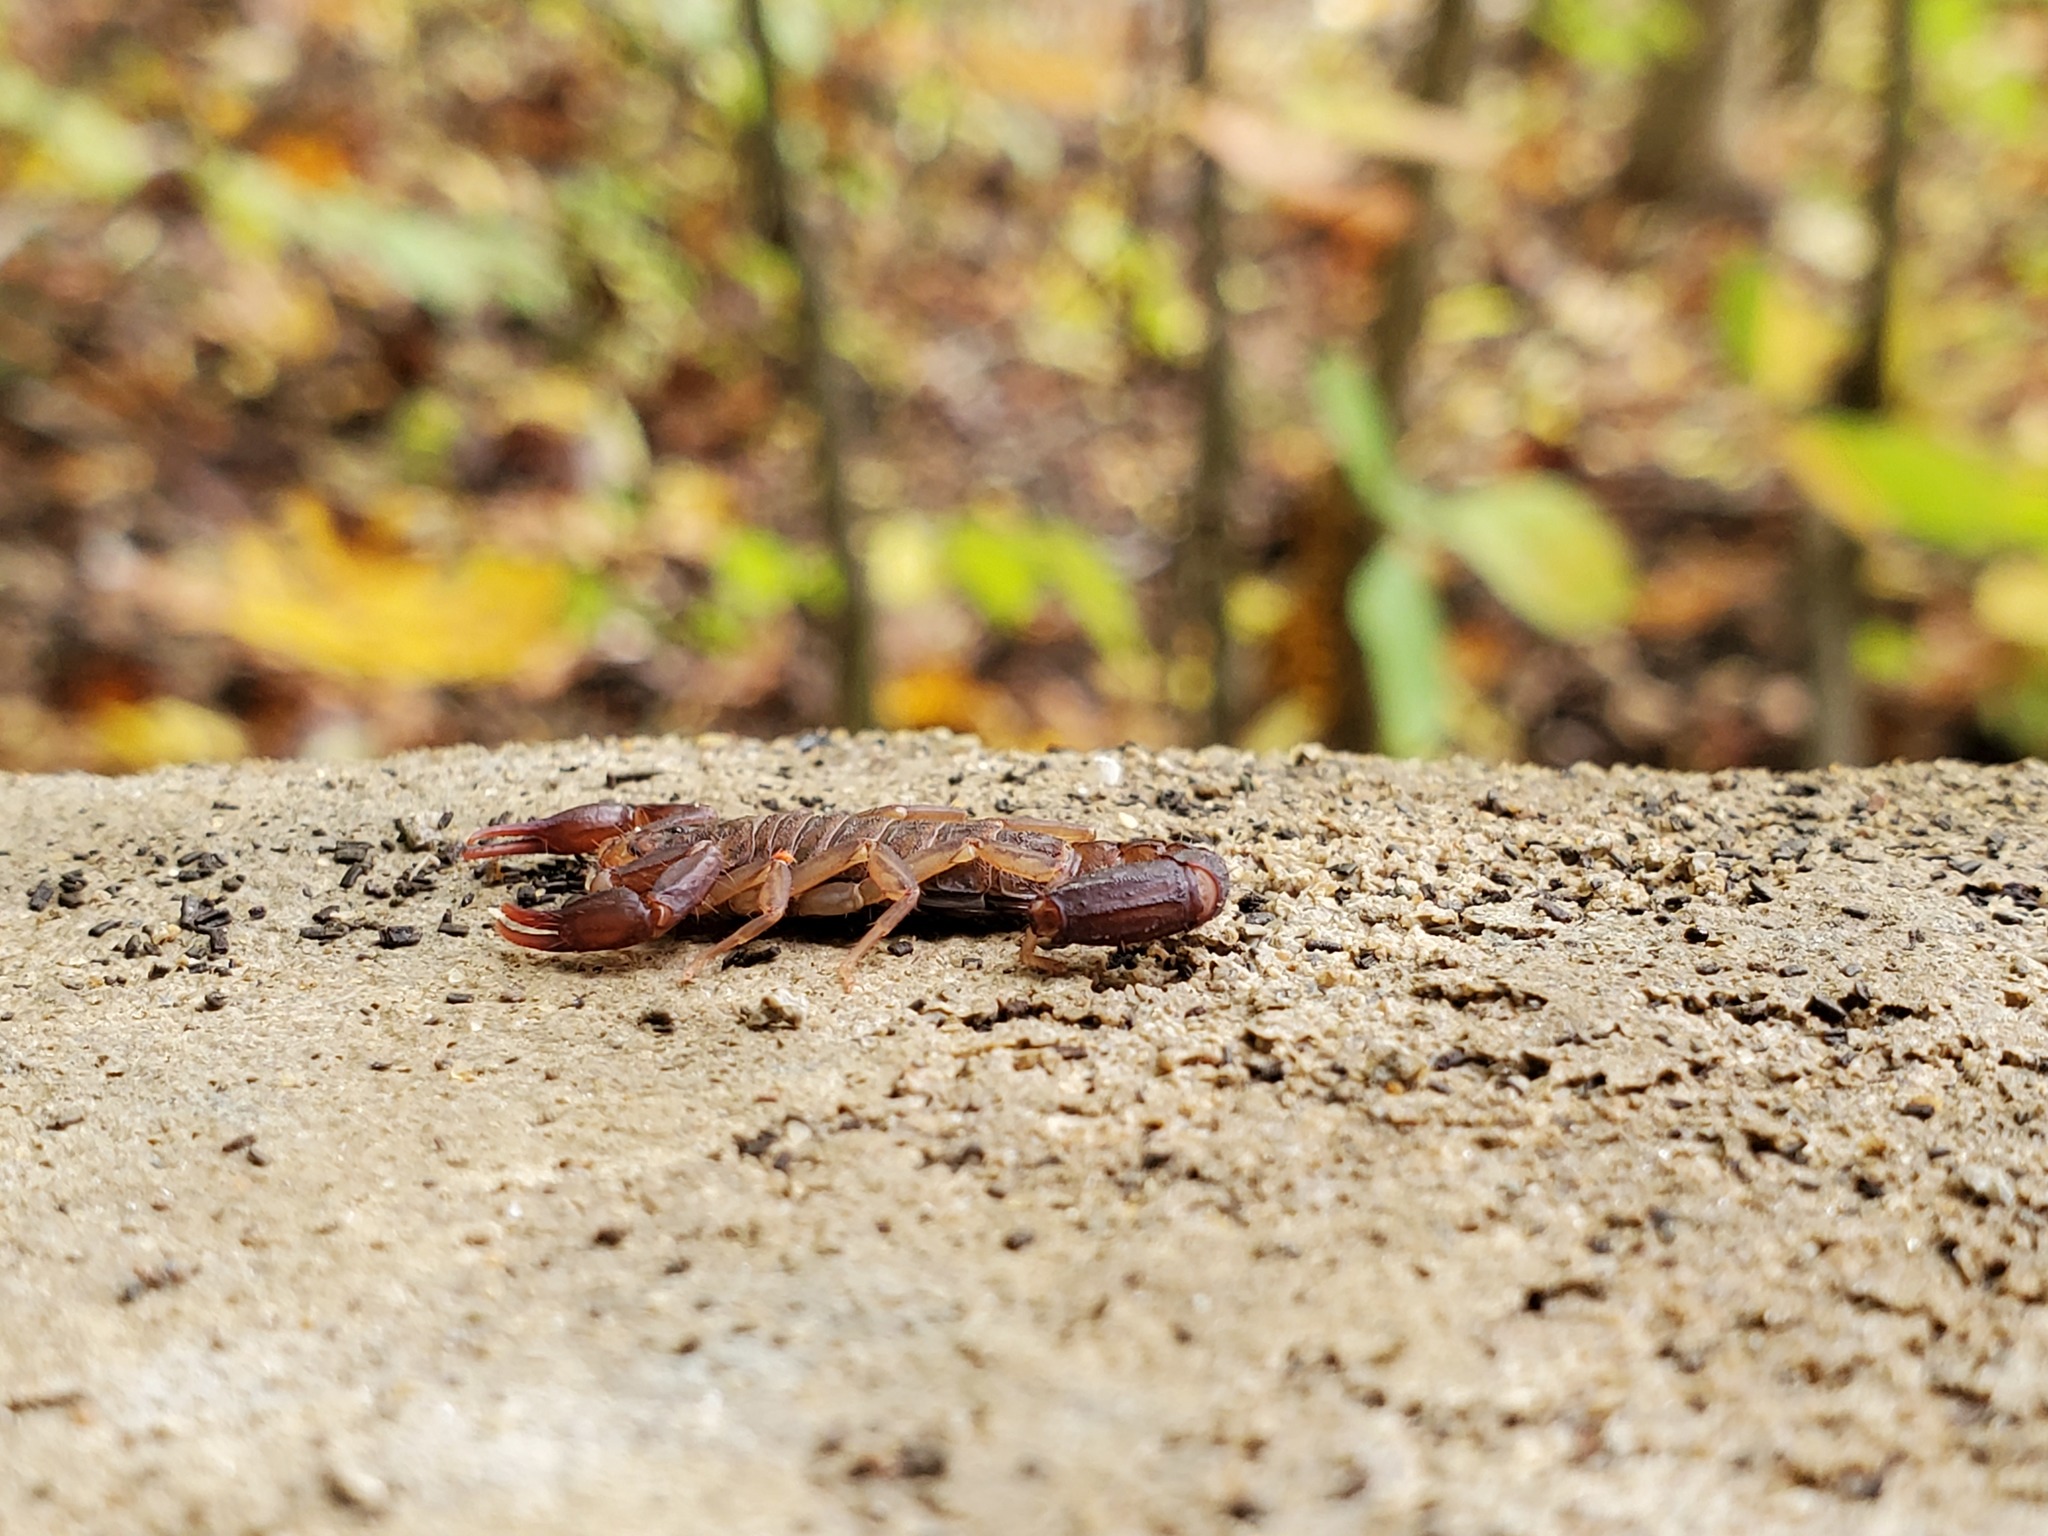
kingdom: Animalia
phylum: Arthropoda
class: Arachnida
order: Scorpiones
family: Vaejovidae
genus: Vaejovis
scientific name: Vaejovis carolinianus
